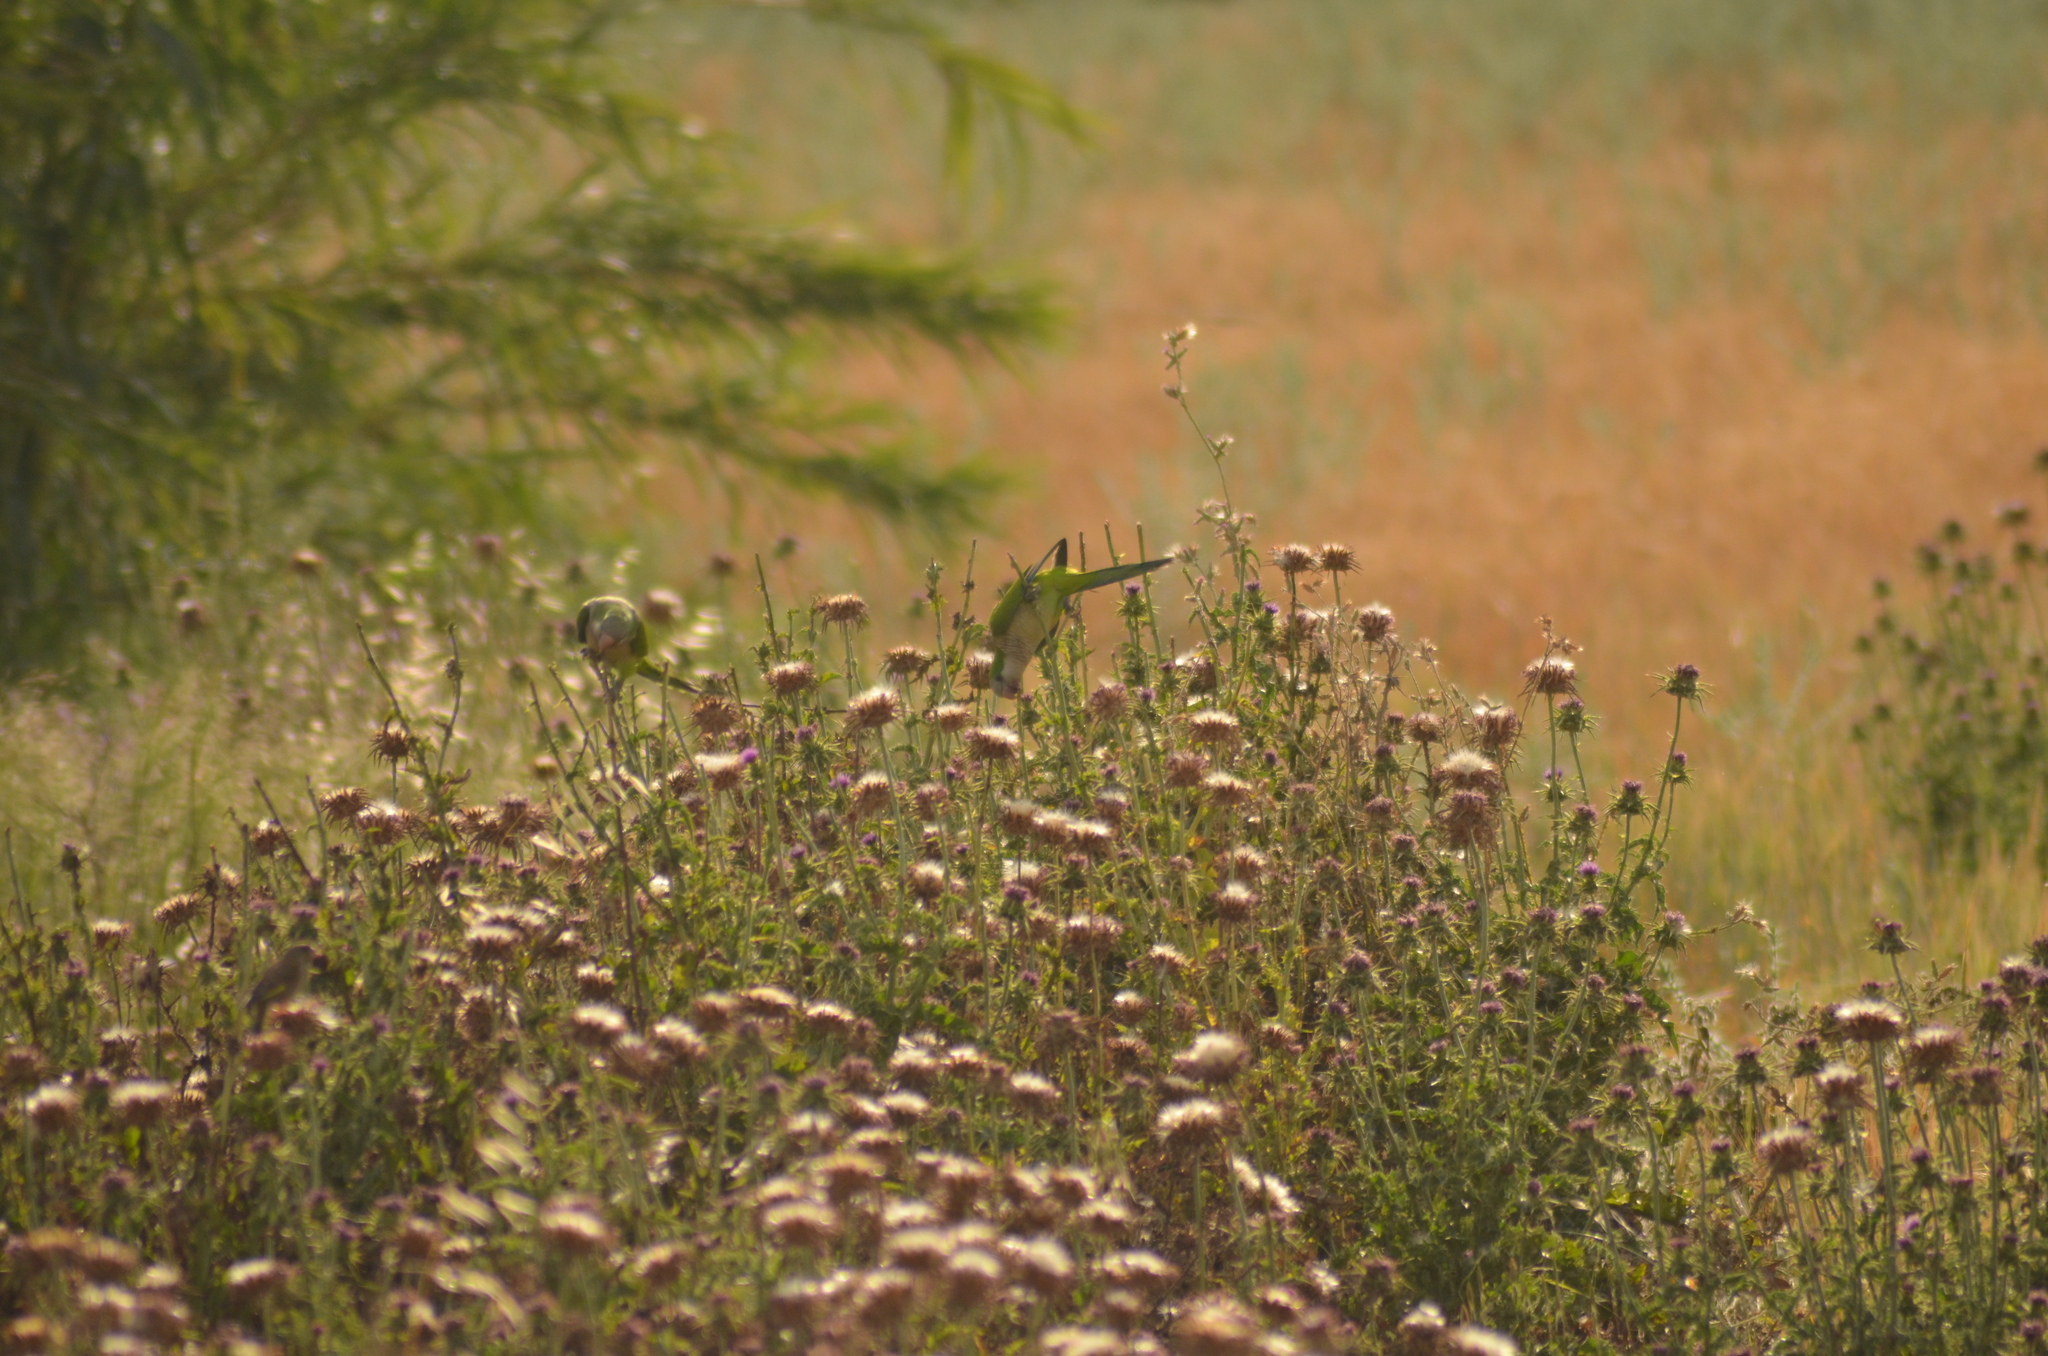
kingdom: Animalia
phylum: Chordata
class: Aves
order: Psittaciformes
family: Psittacidae
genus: Myiopsitta
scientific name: Myiopsitta monachus
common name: Monk parakeet
